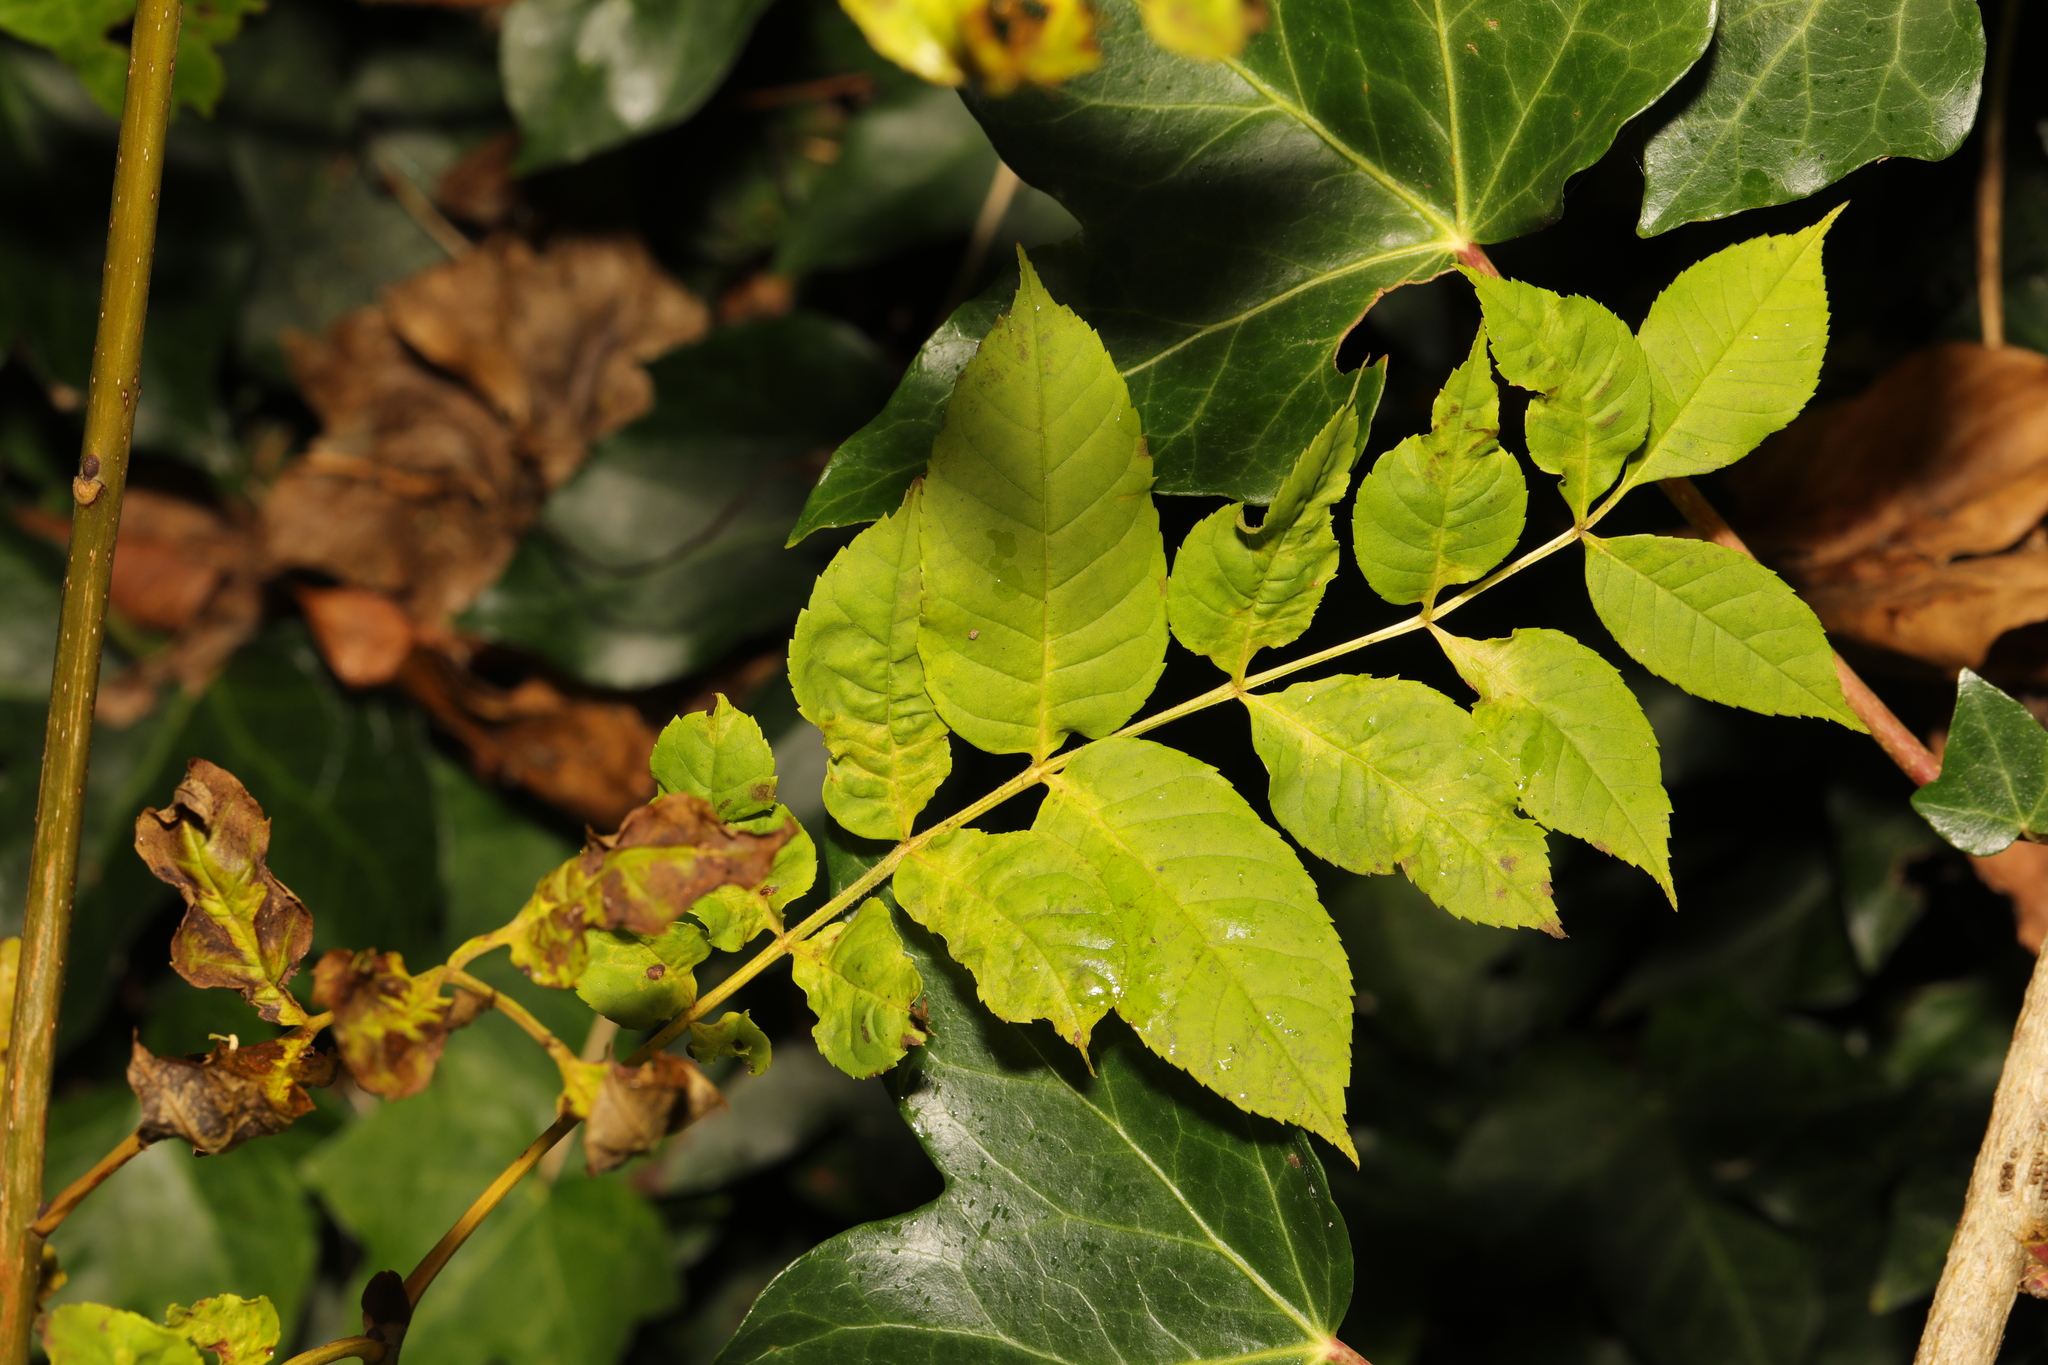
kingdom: Plantae
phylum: Tracheophyta
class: Magnoliopsida
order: Lamiales
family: Oleaceae
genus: Fraxinus
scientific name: Fraxinus excelsior
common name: European ash
